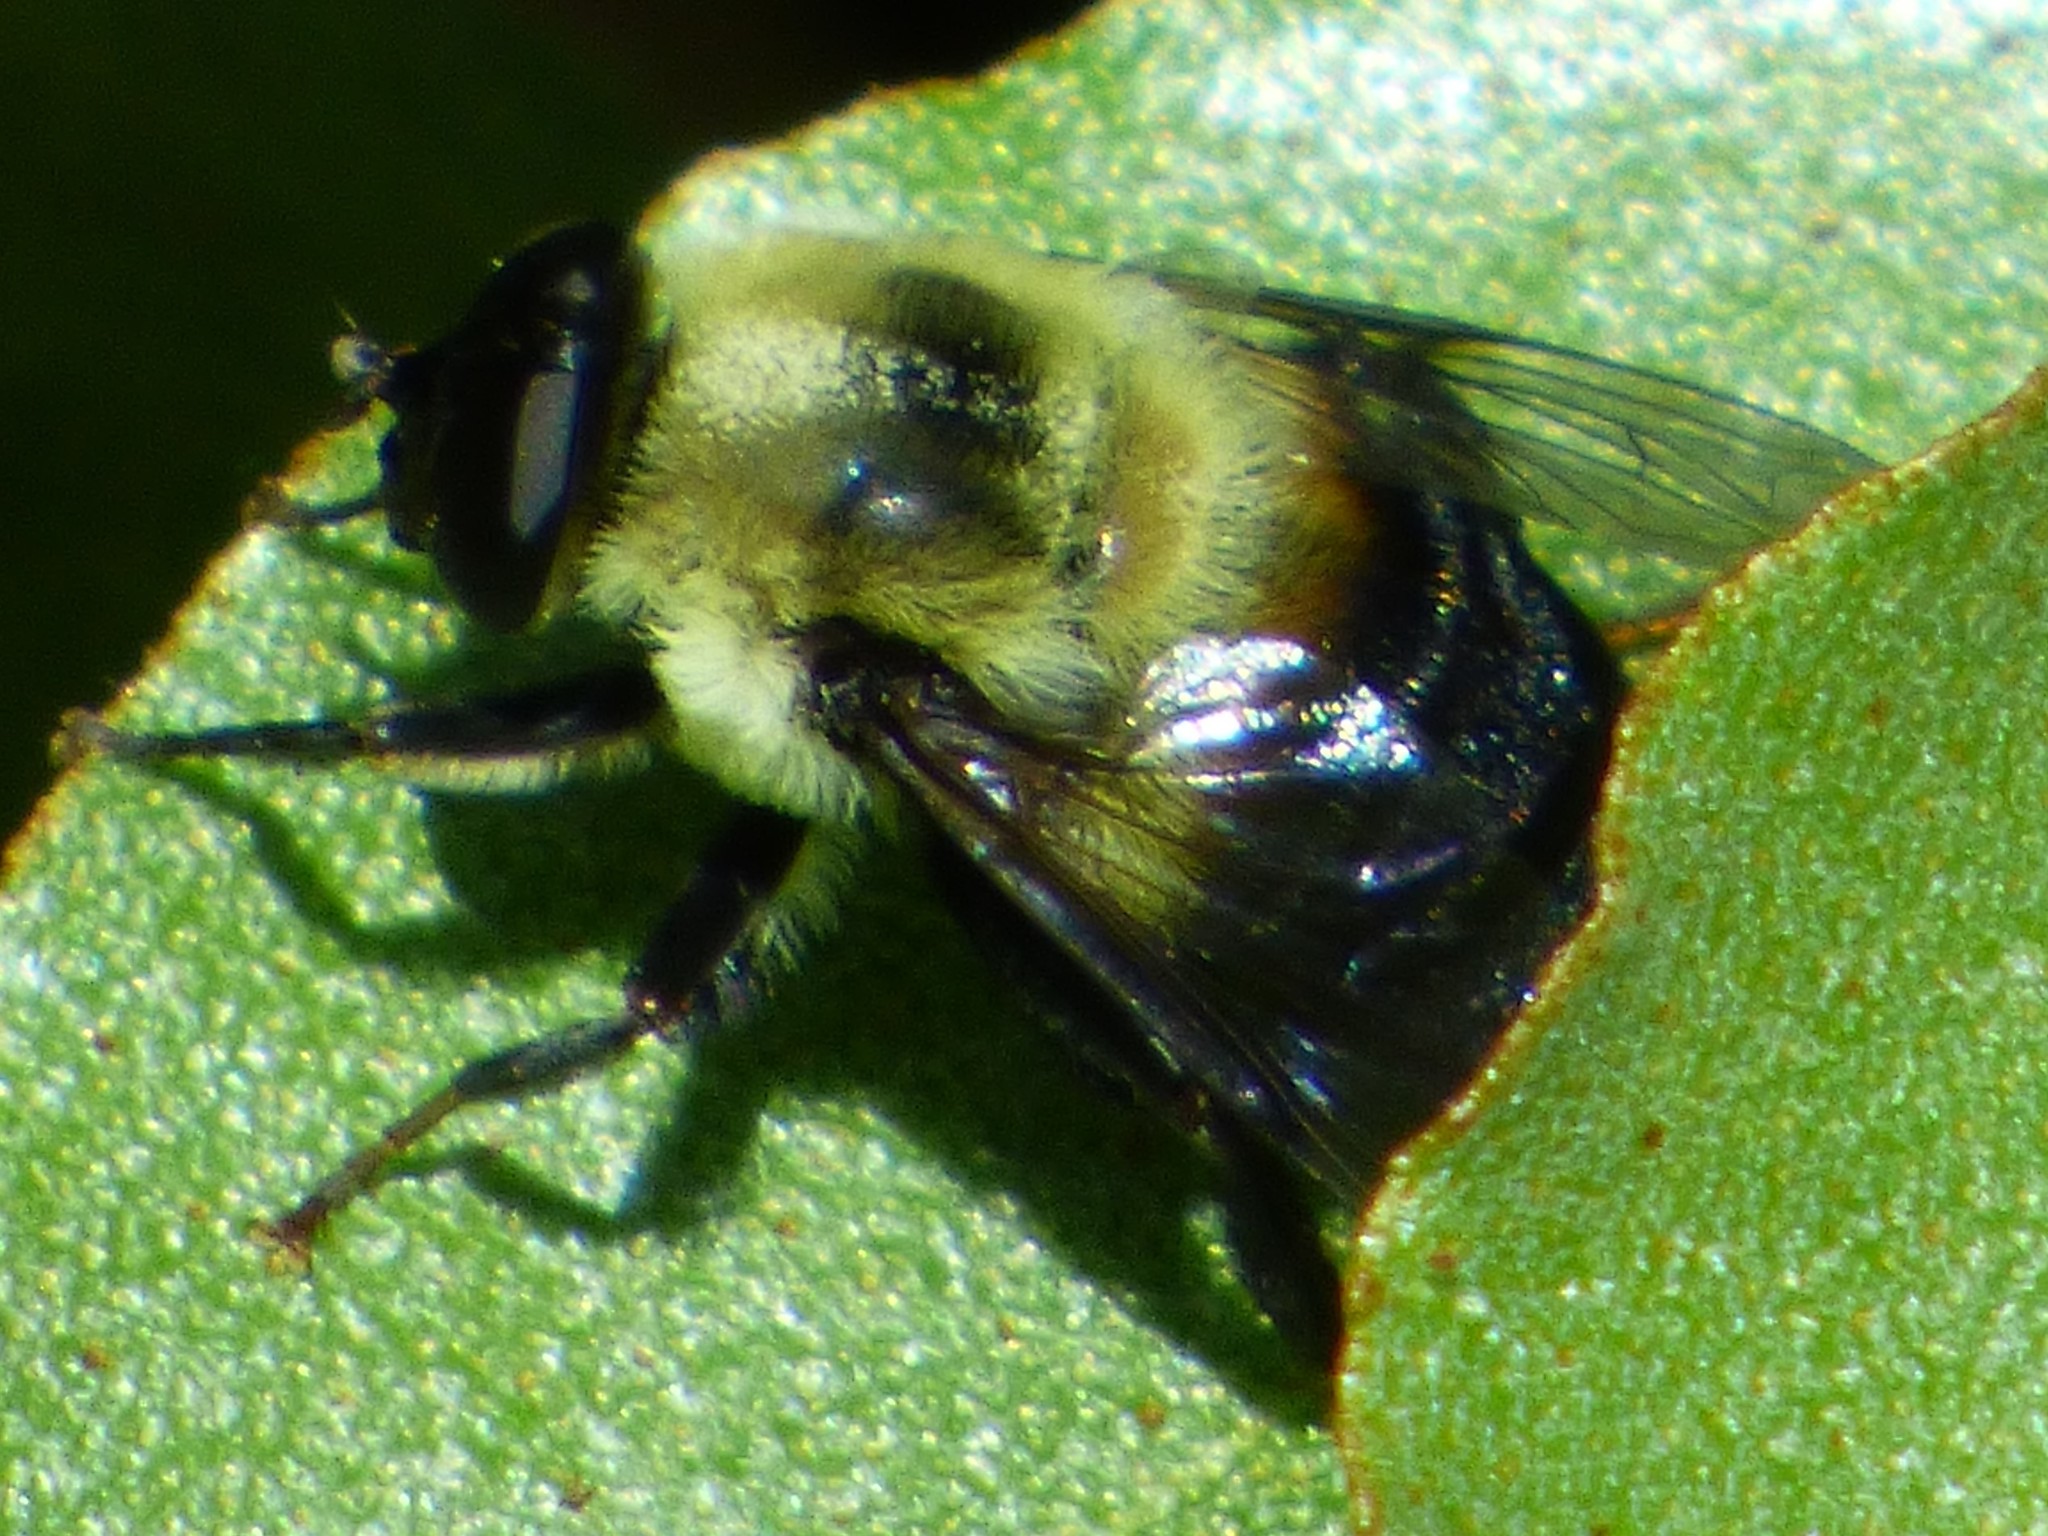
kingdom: Animalia
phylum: Arthropoda
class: Insecta
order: Diptera
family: Syrphidae
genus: Imatisma
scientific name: Imatisma posticata
